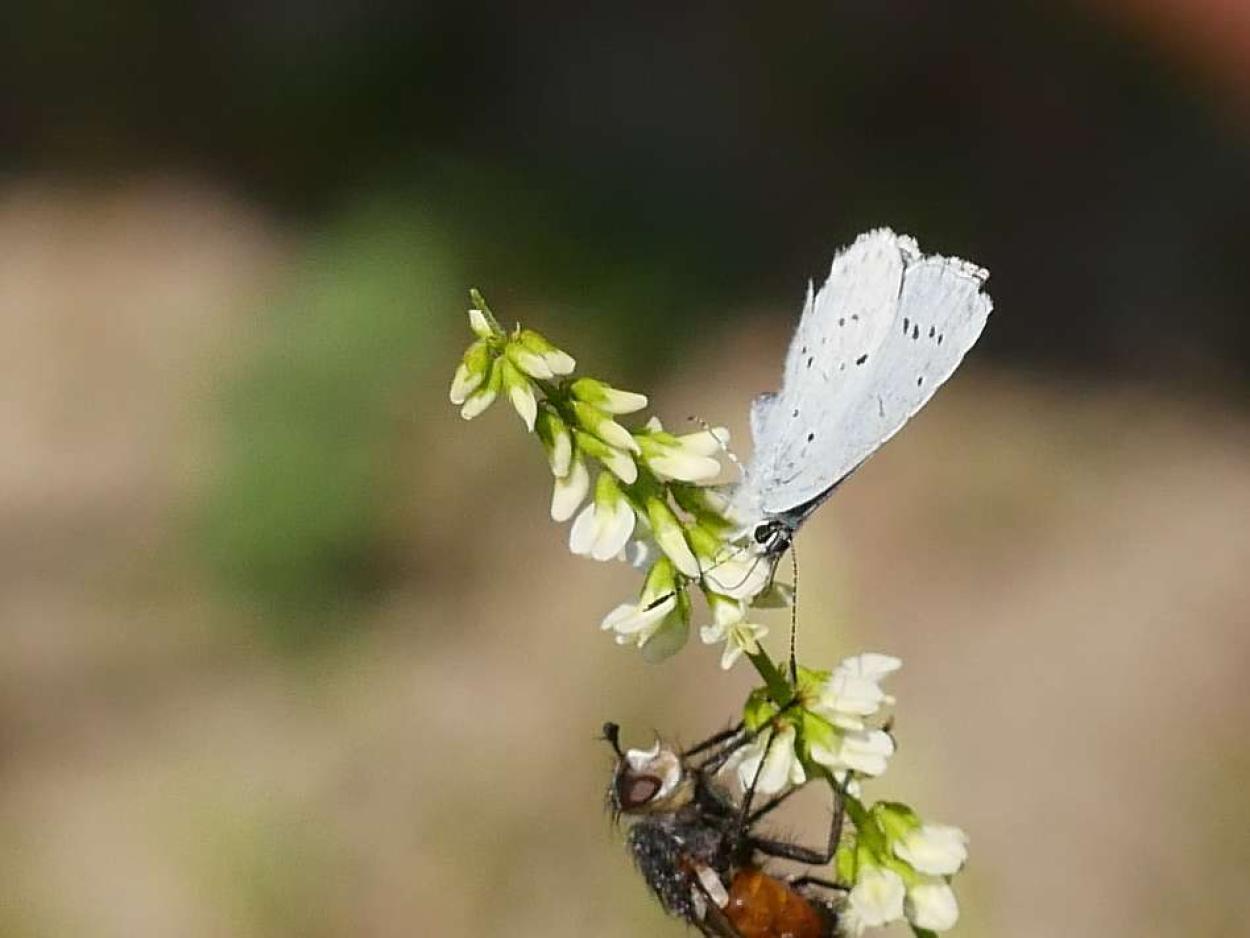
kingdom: Animalia
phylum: Arthropoda
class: Insecta
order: Lepidoptera
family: Lycaenidae
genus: Celastrina
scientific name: Celastrina argiolus
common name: Holly blue
